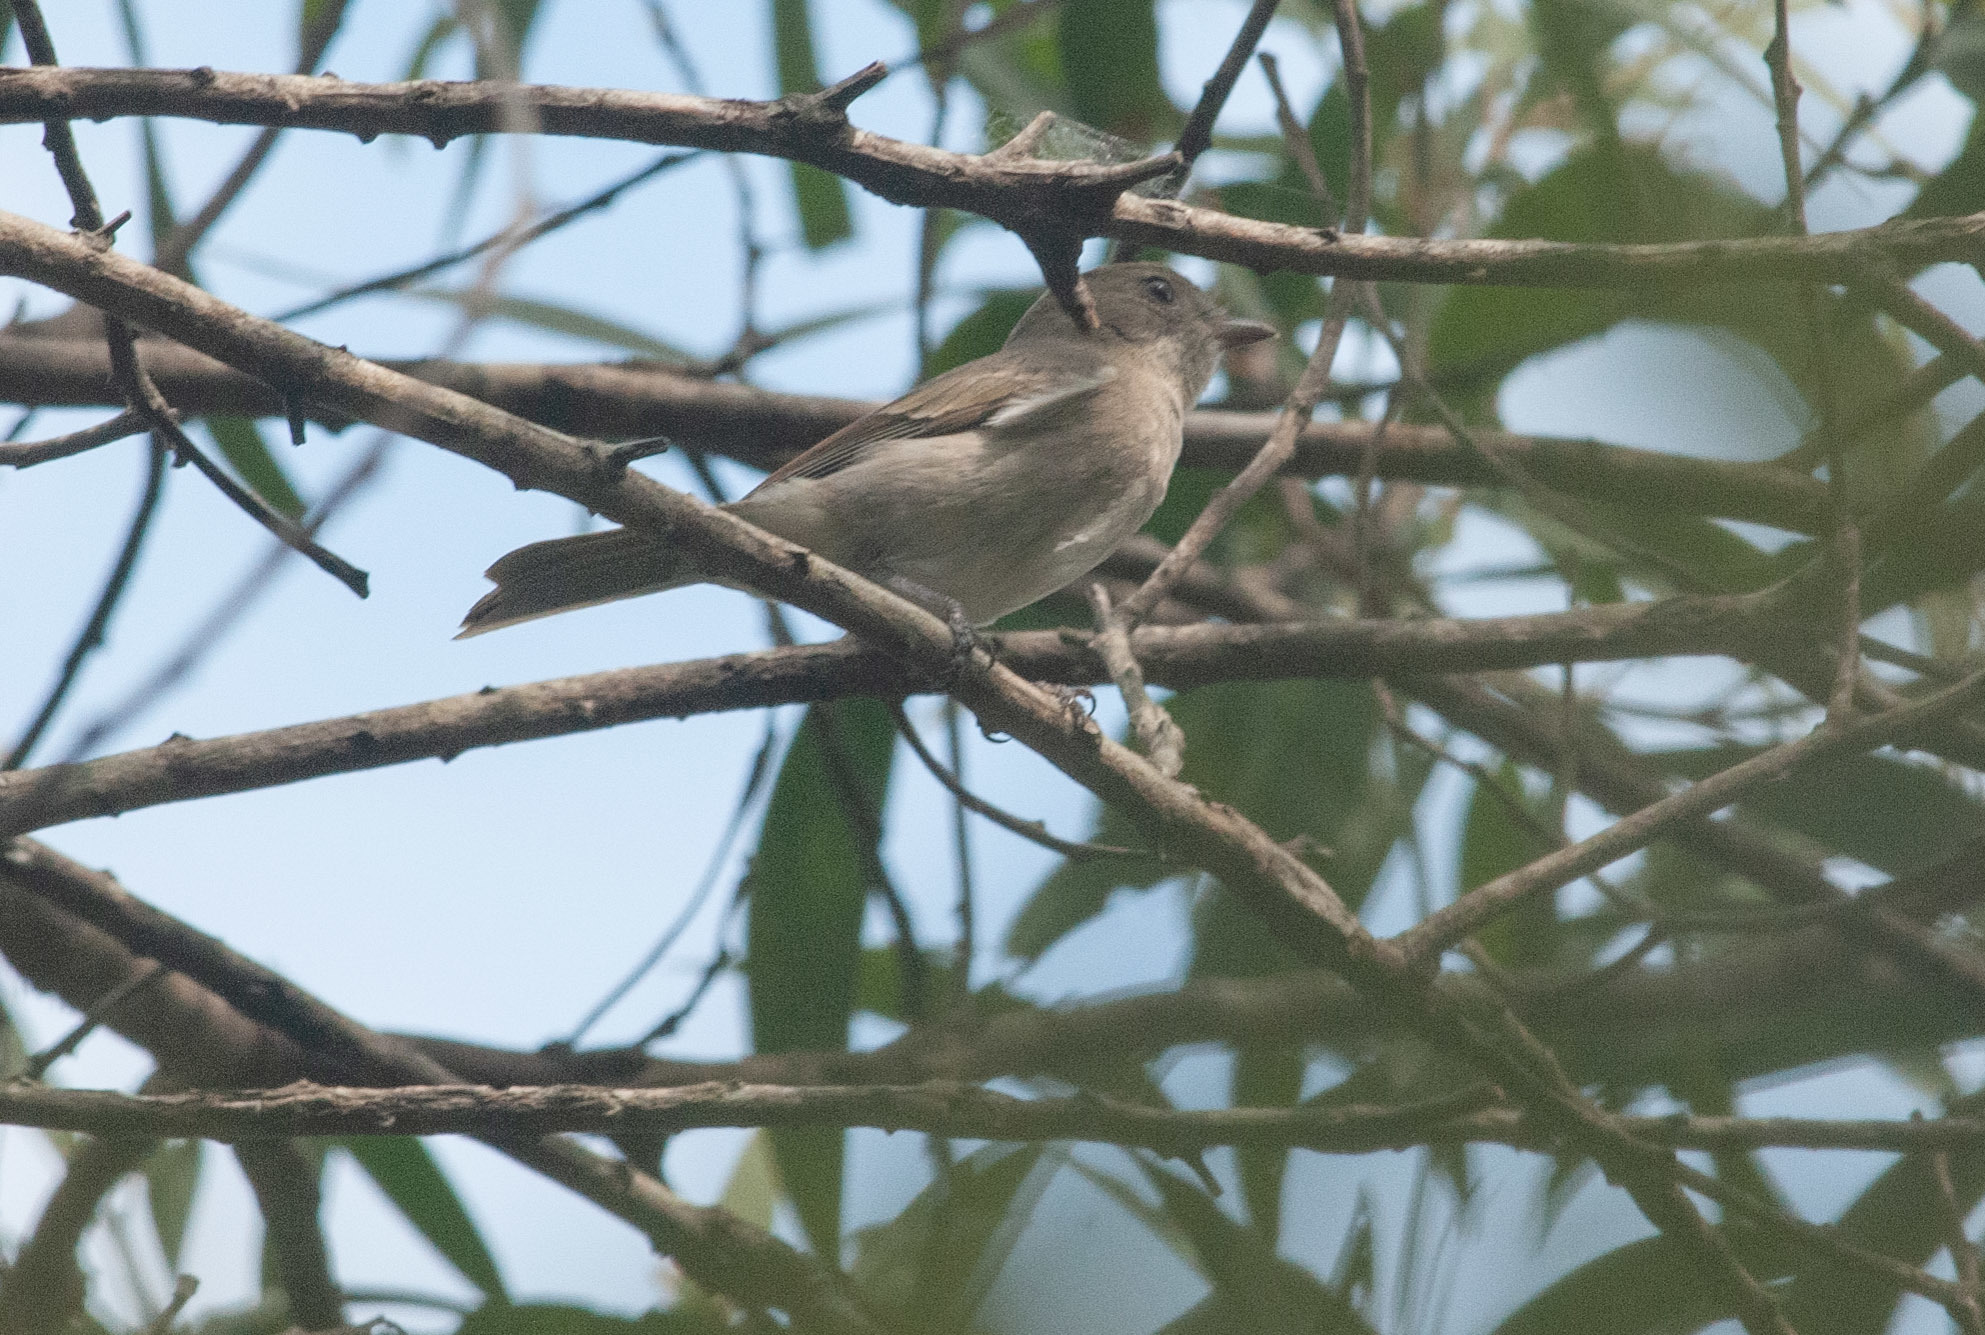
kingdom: Animalia
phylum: Chordata
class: Aves
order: Passeriformes
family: Pachycephalidae
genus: Pachycephala
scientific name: Pachycephala pectoralis
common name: Australian golden whistler
